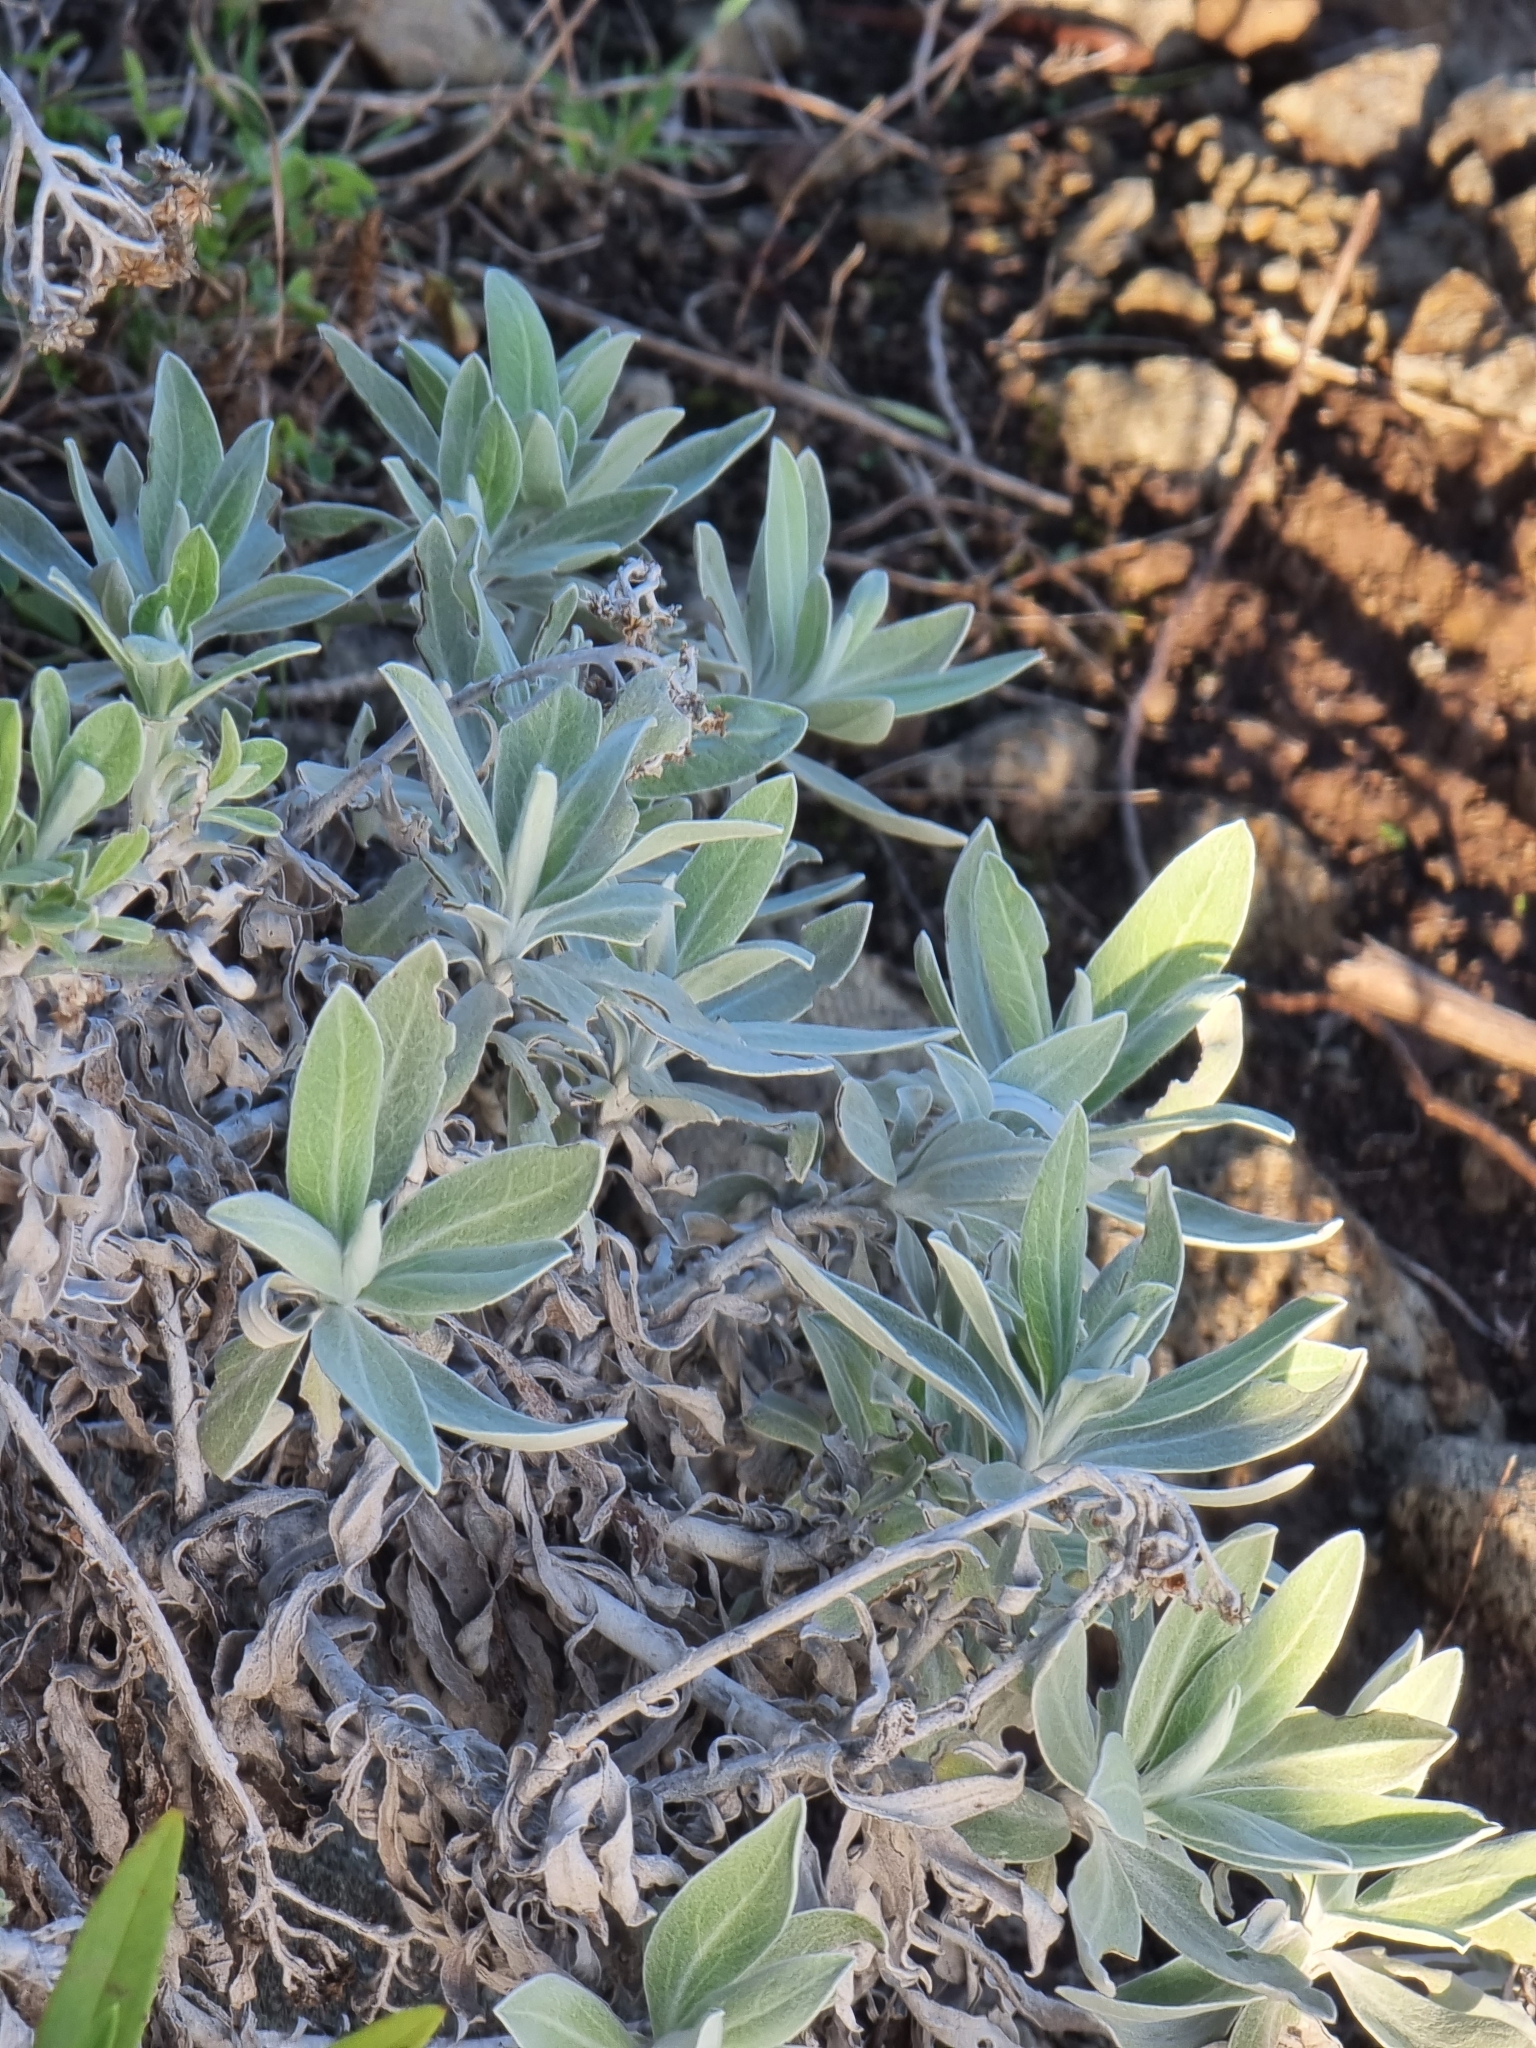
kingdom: Plantae
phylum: Tracheophyta
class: Magnoliopsida
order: Asterales
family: Asteraceae
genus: Helichrysum
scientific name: Helichrysum melaleucum
